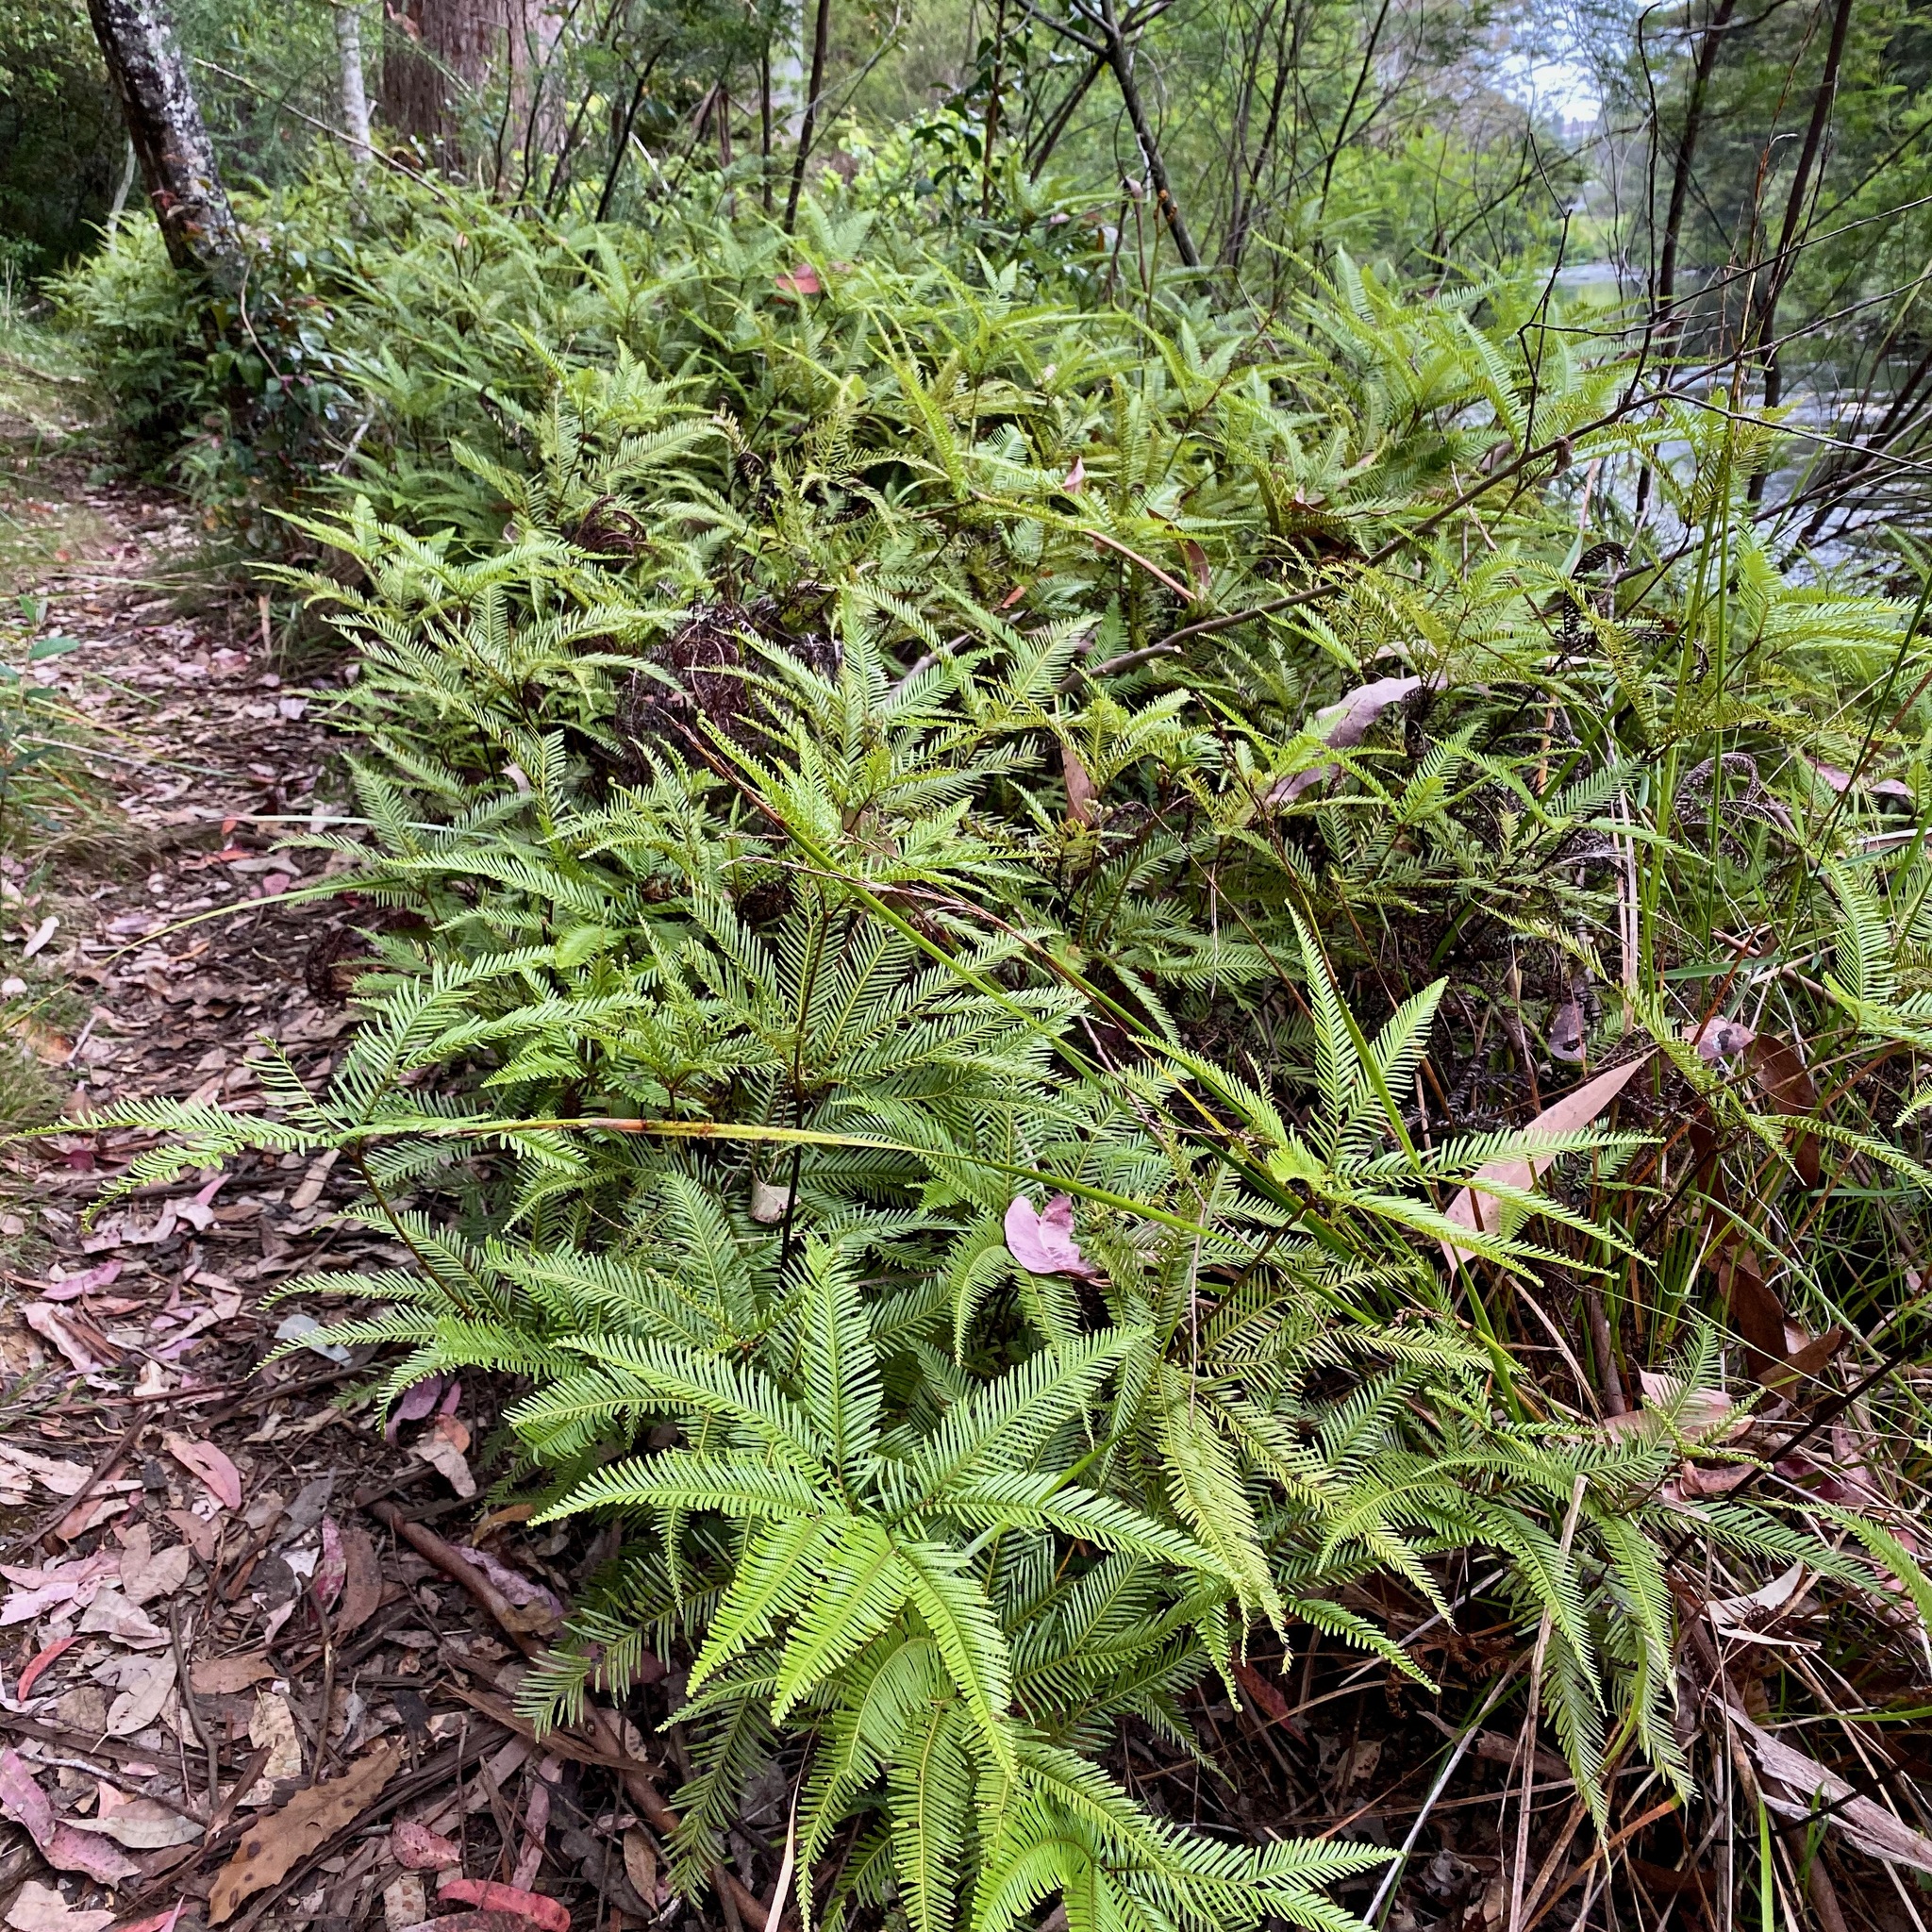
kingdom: Plantae
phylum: Tracheophyta
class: Polypodiopsida
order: Gleicheniales
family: Gleicheniaceae
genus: Sticherus
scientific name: Sticherus flabellatus
